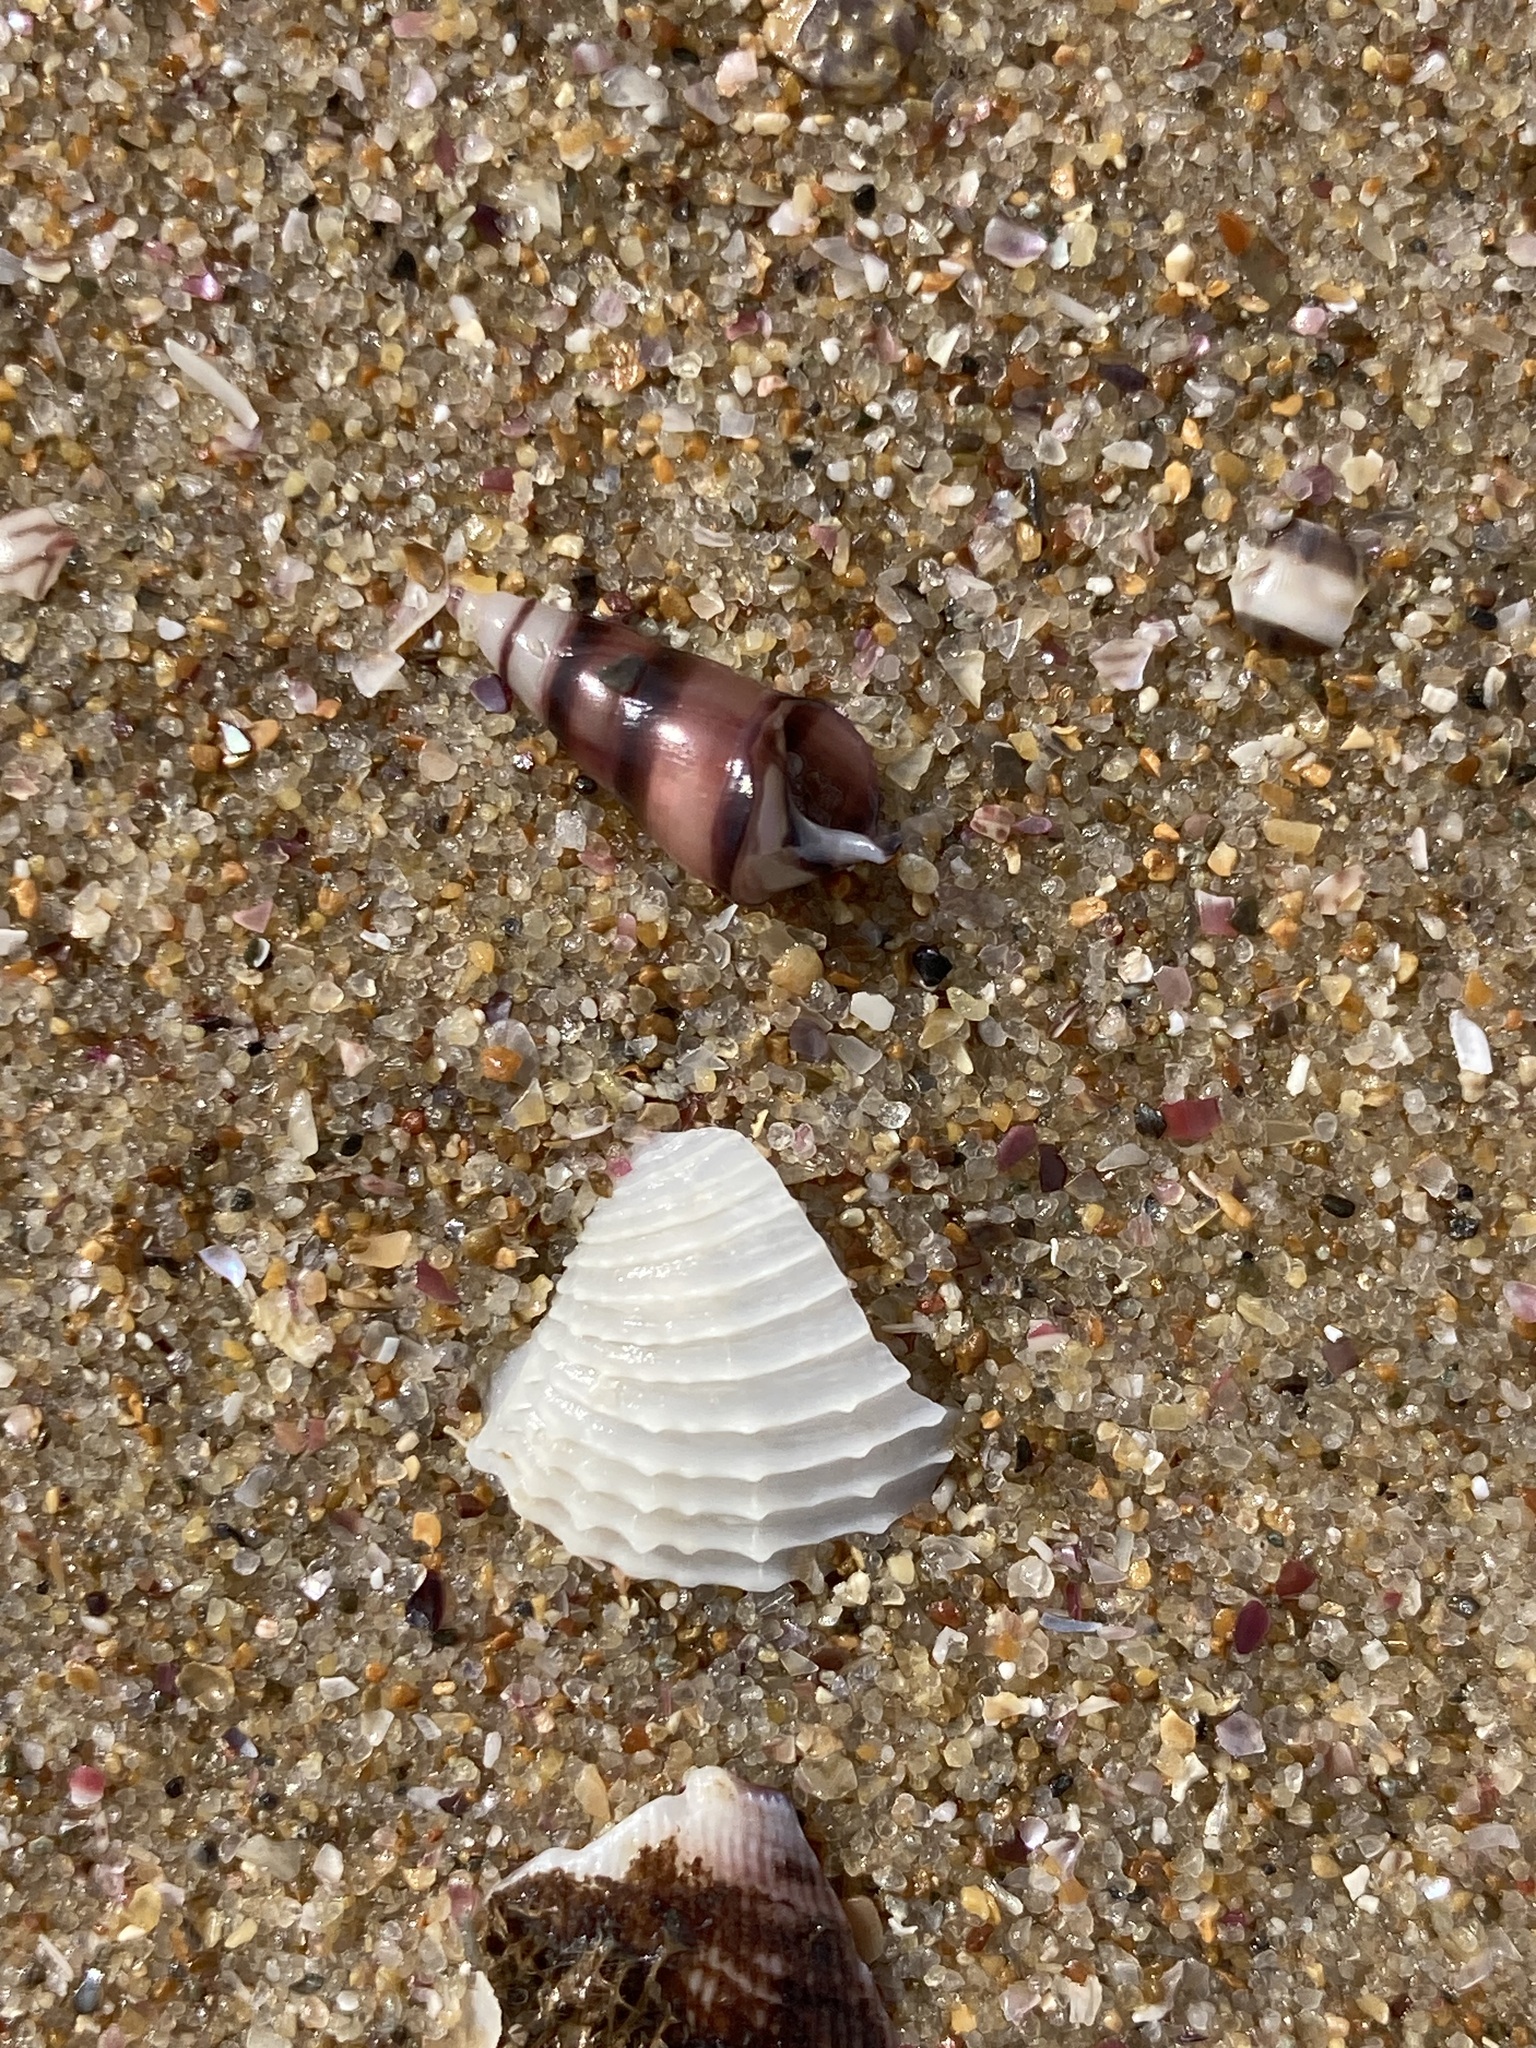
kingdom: Animalia
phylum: Mollusca
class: Bivalvia
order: Myida
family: Pholadidae
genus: Barnea
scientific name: Barnea australasiae
